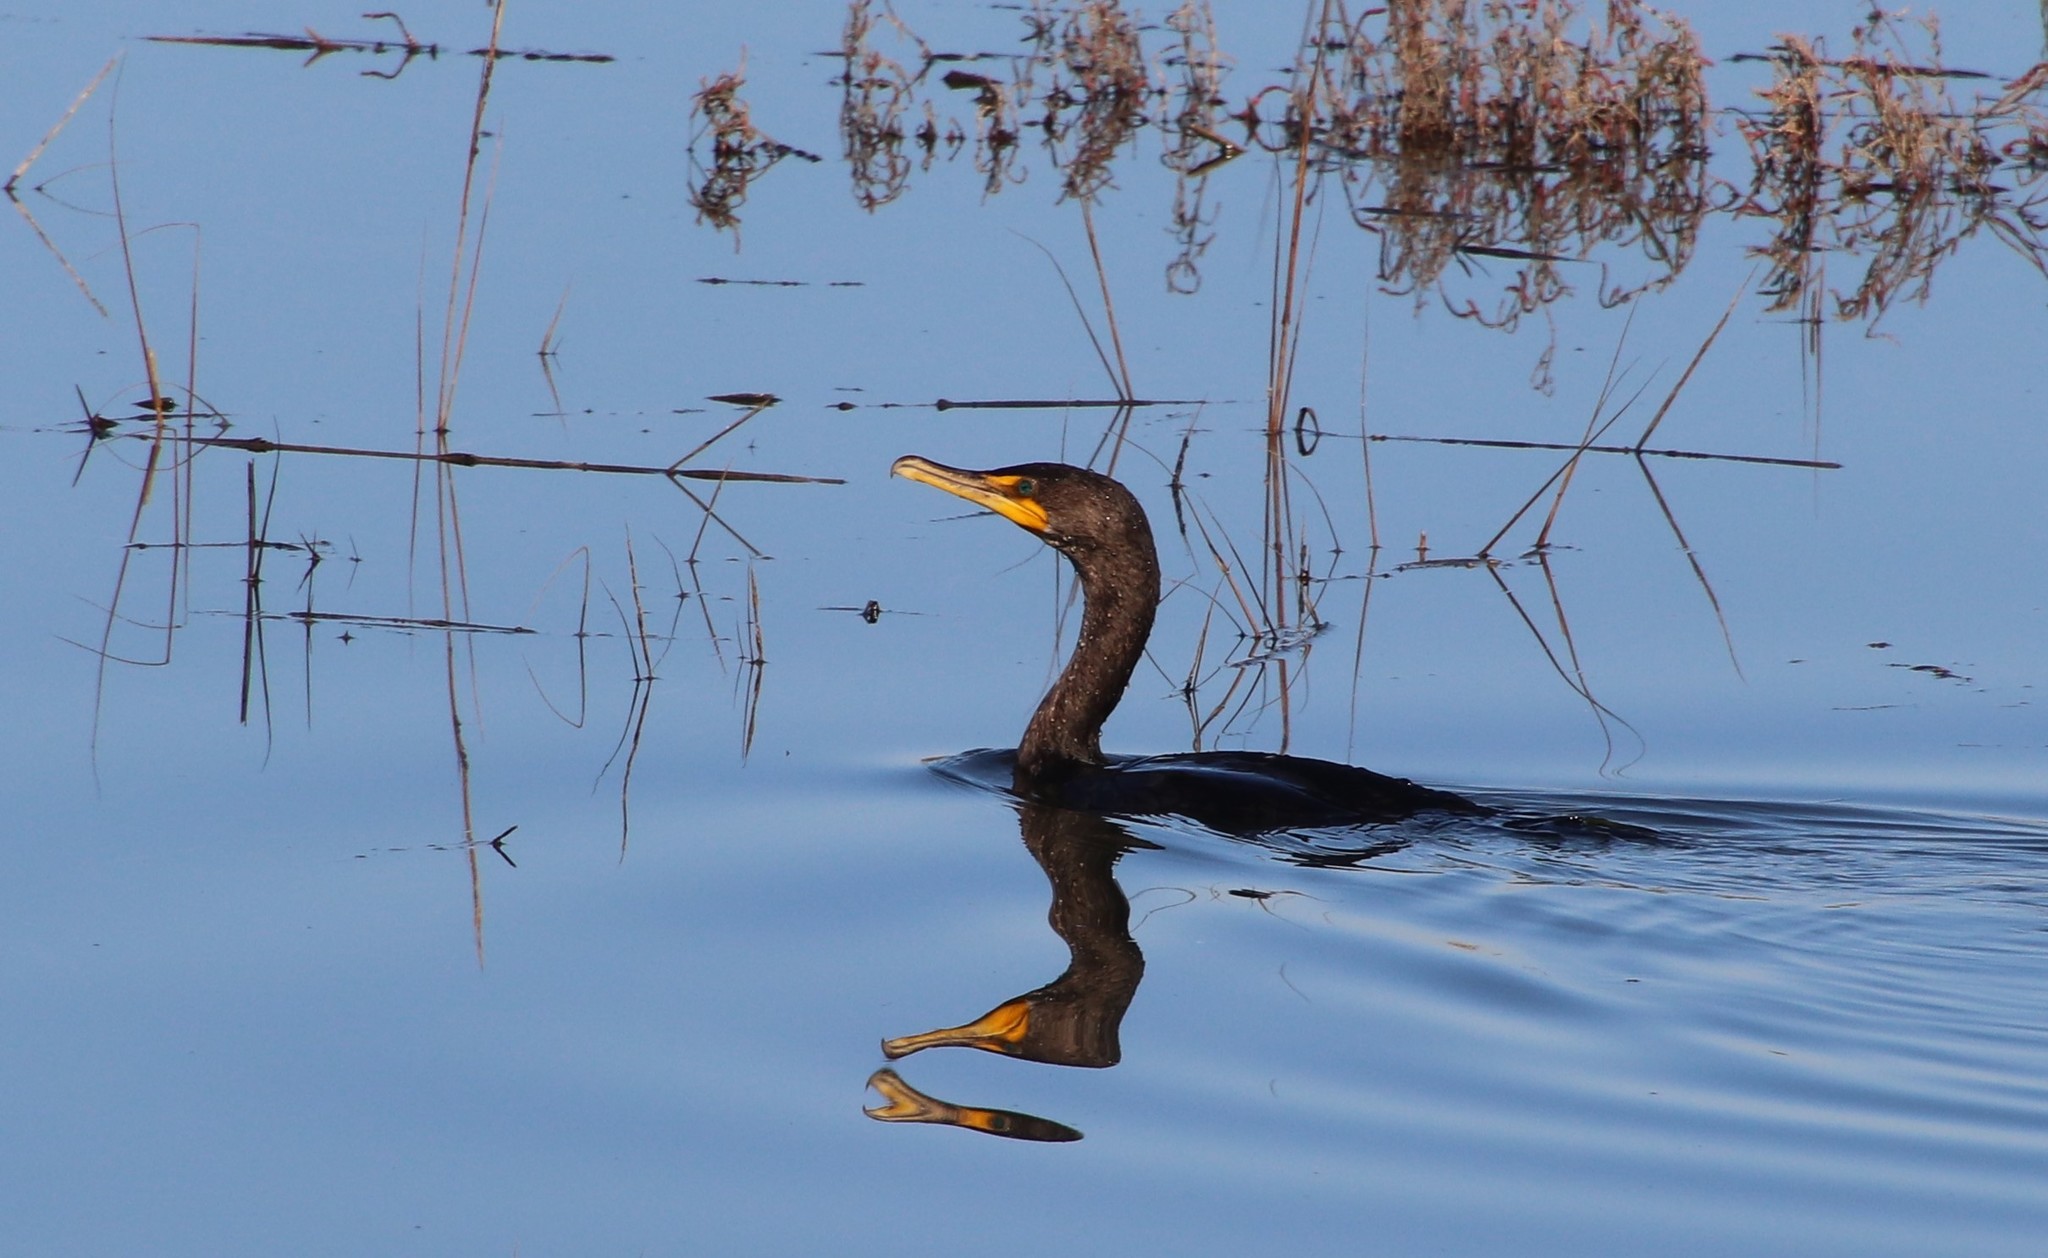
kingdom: Animalia
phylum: Chordata
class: Aves
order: Suliformes
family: Phalacrocoracidae
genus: Phalacrocorax
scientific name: Phalacrocorax auritus
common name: Double-crested cormorant
